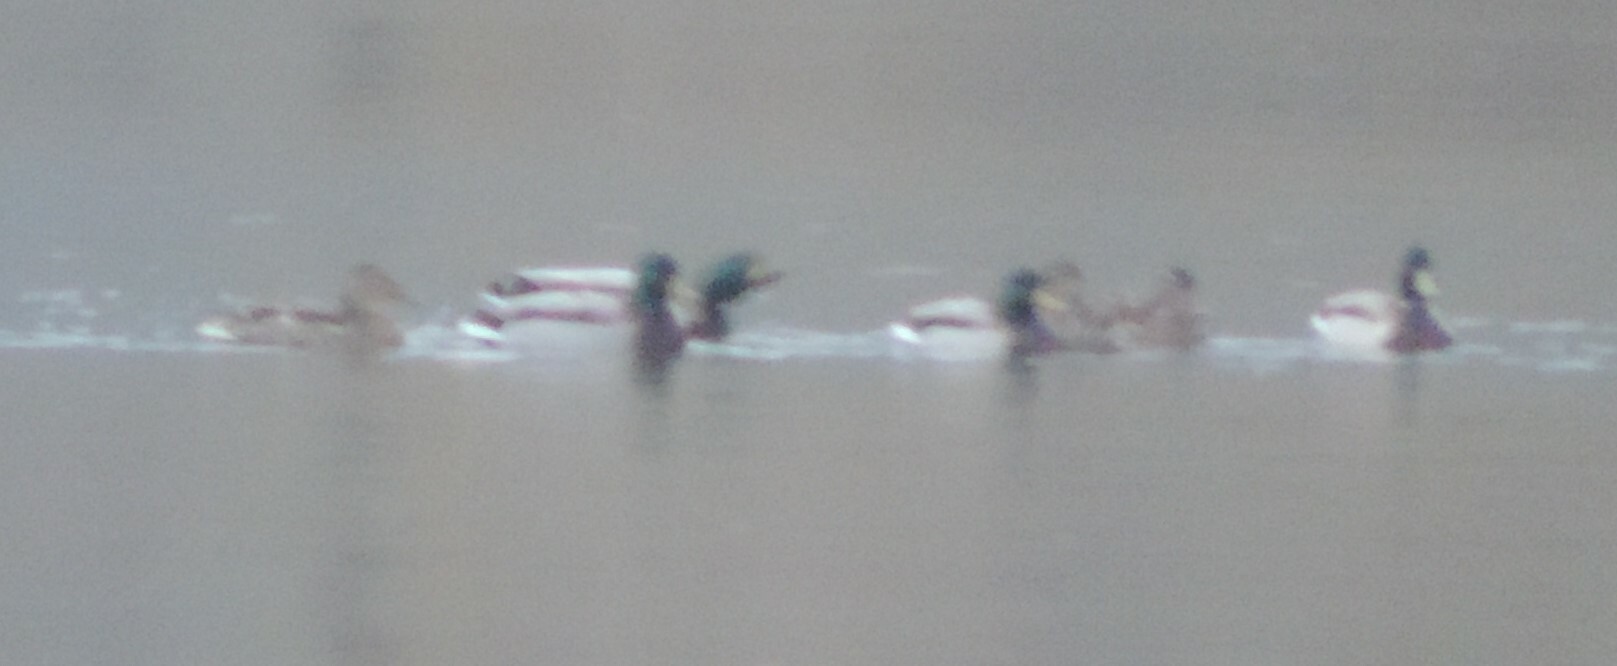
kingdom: Animalia
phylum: Chordata
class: Aves
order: Anseriformes
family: Anatidae
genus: Anas
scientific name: Anas platyrhynchos
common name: Mallard
